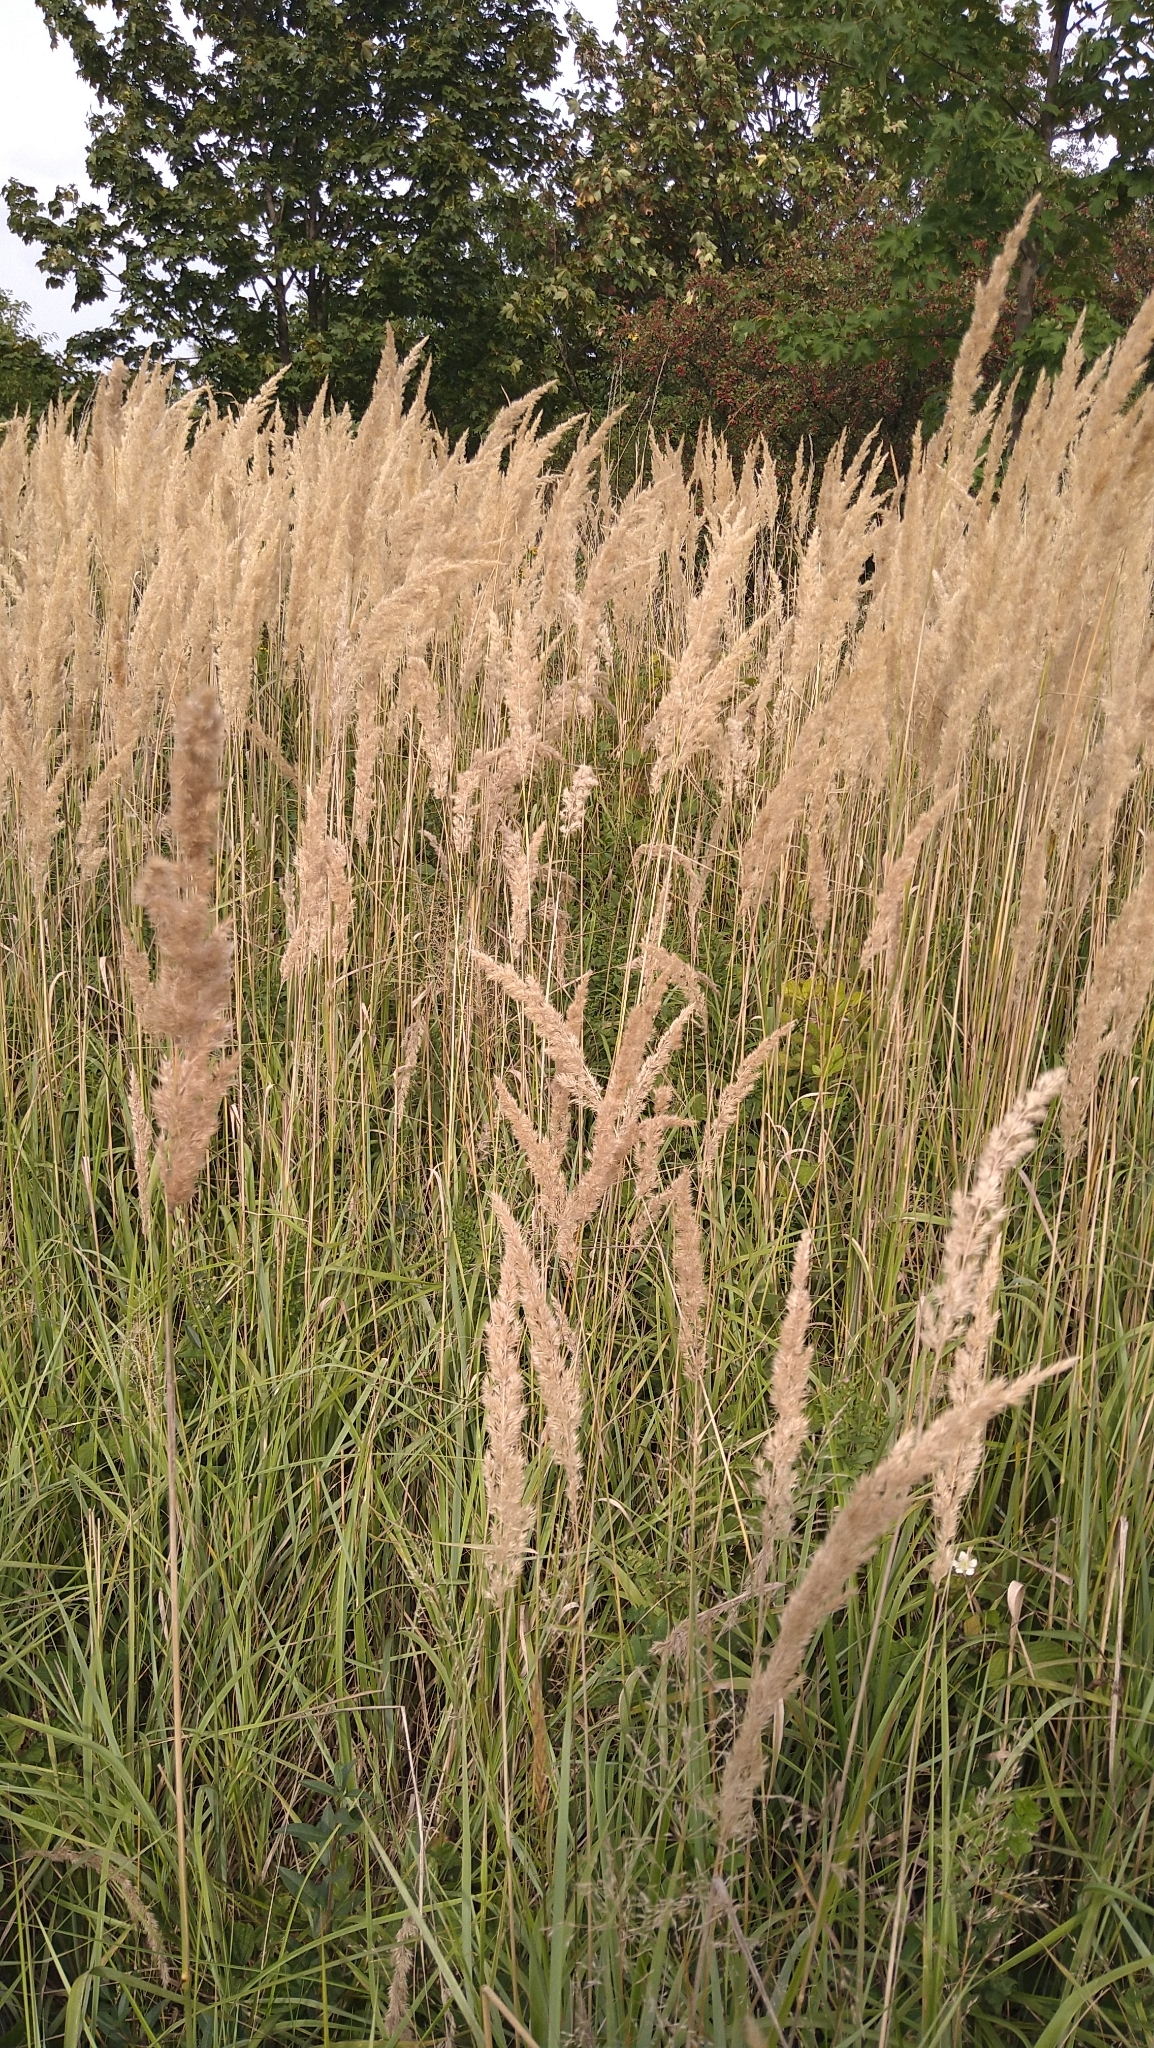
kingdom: Plantae
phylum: Tracheophyta
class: Liliopsida
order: Poales
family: Poaceae
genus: Calamagrostis
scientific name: Calamagrostis epigejos
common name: Wood small-reed
